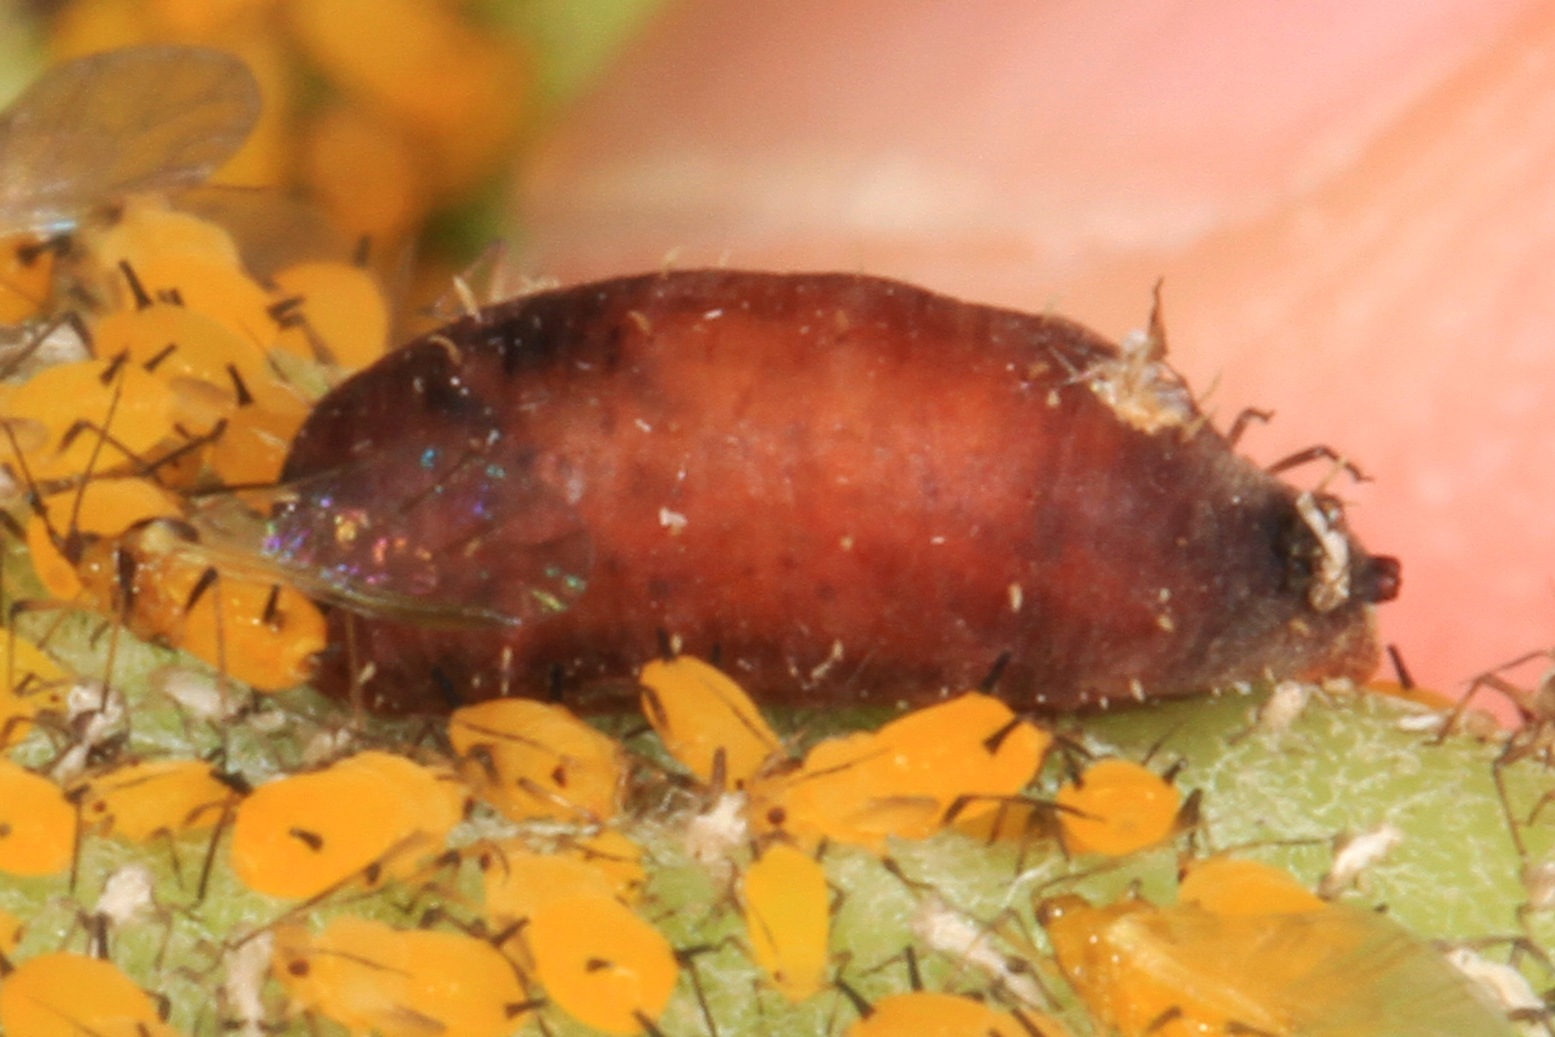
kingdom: Animalia
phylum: Arthropoda
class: Insecta
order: Diptera
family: Syrphidae
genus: Dioprosopa
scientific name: Dioprosopa clavatus
